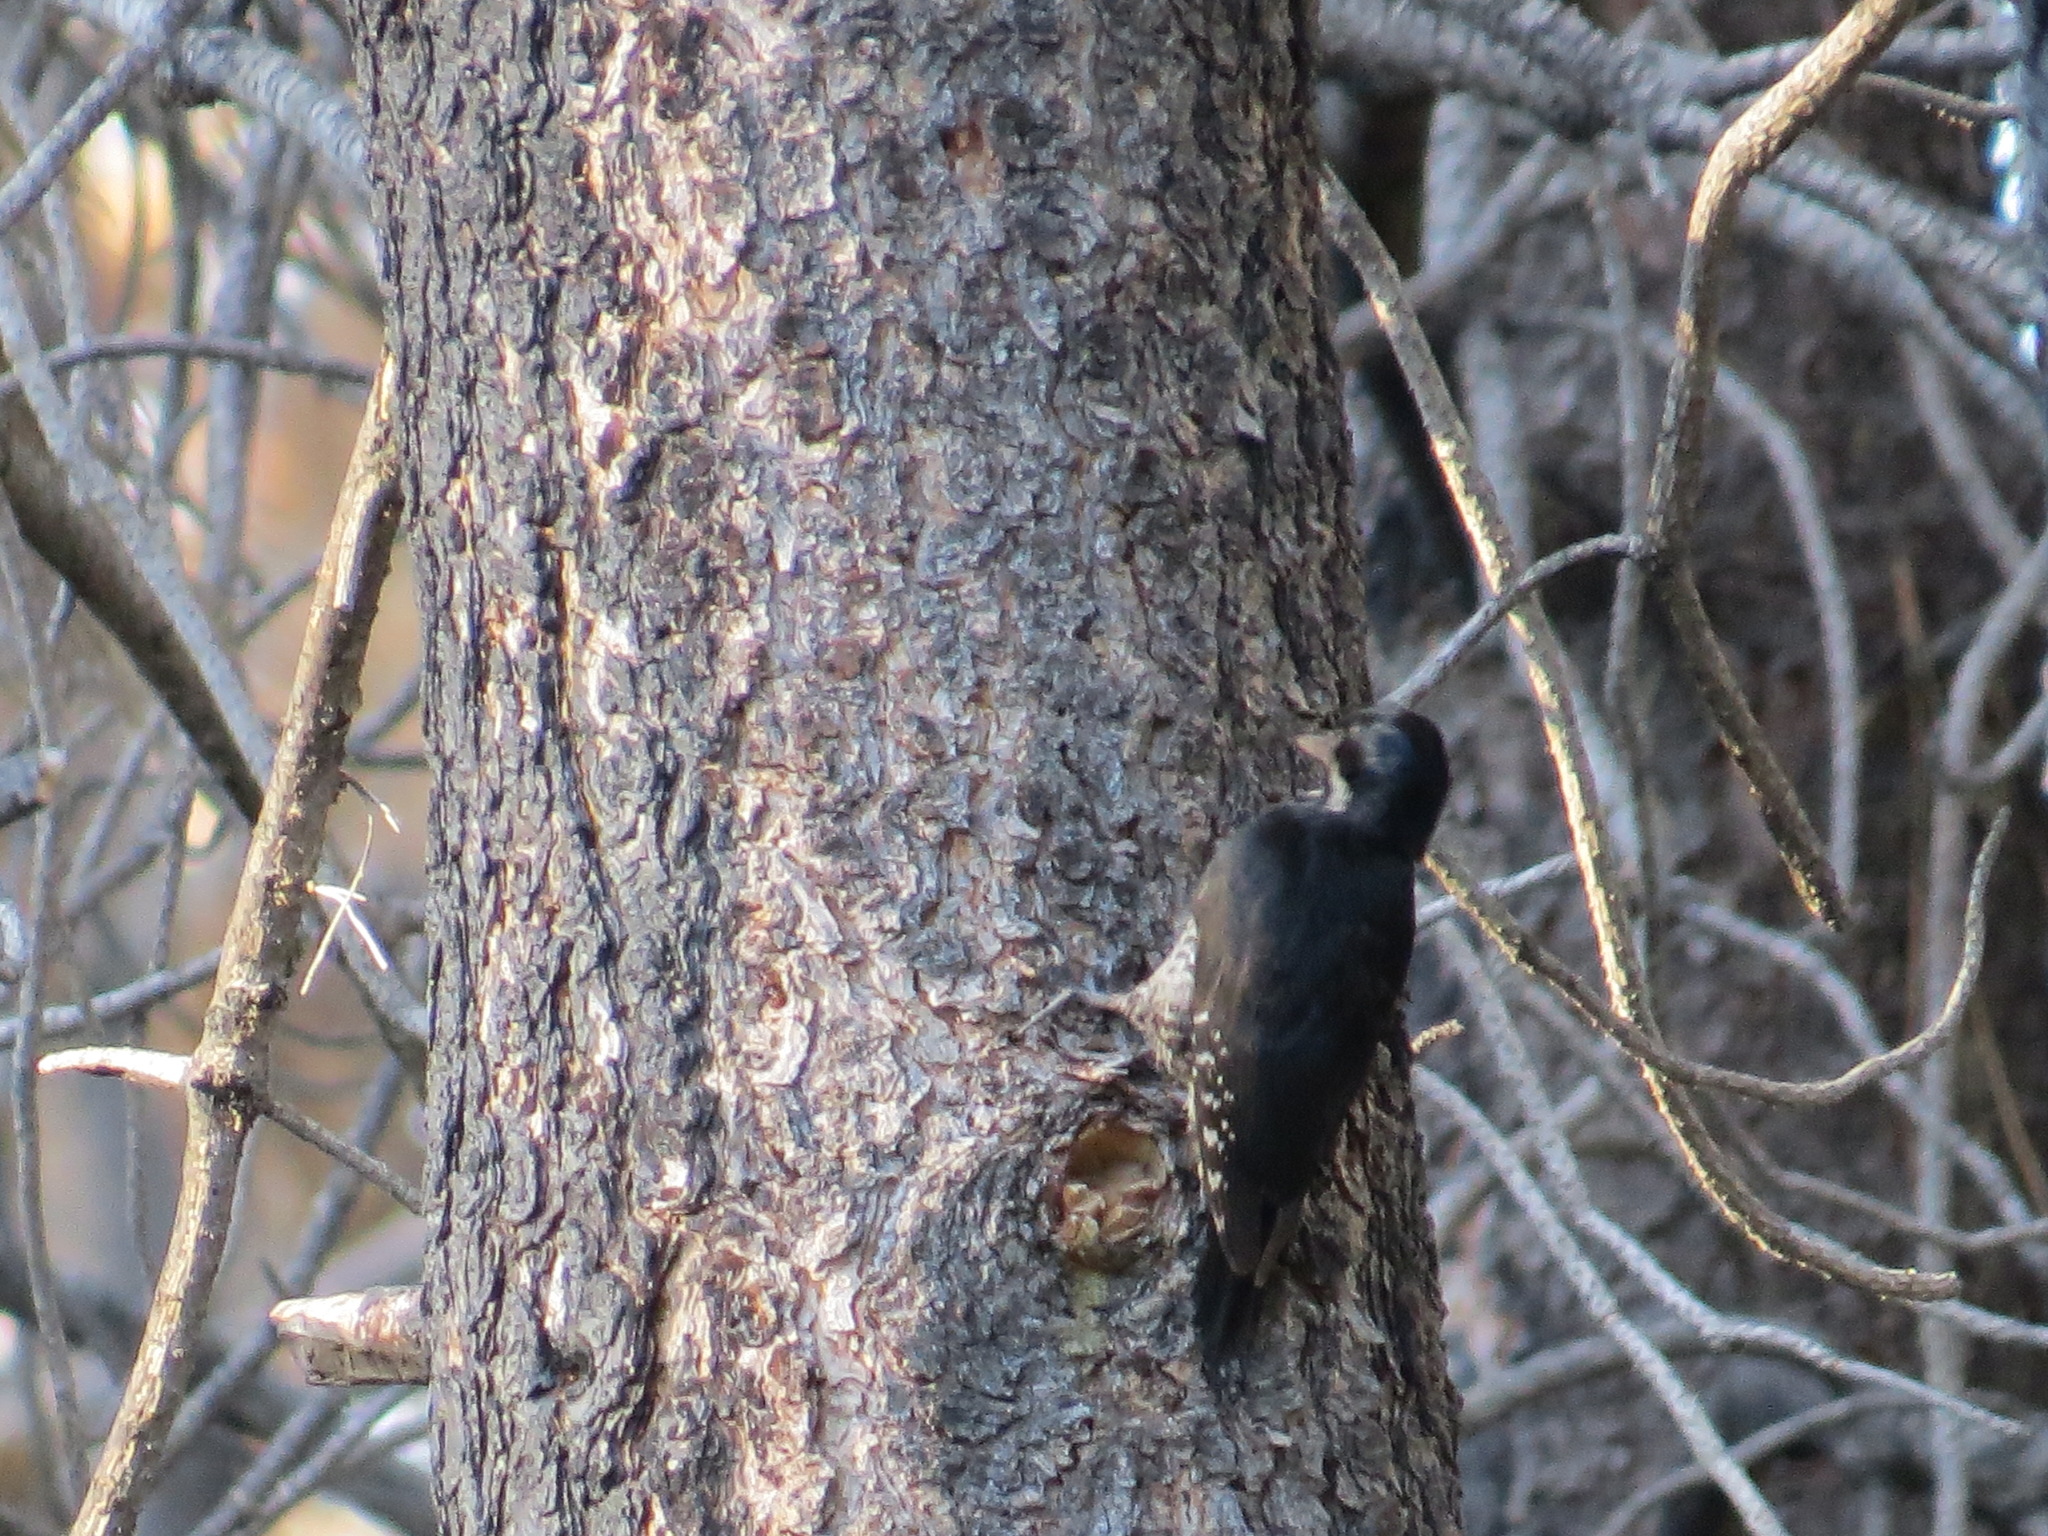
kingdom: Animalia
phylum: Chordata
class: Aves
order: Piciformes
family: Picidae
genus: Picoides
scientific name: Picoides arcticus
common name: Black-backed woodpecker
